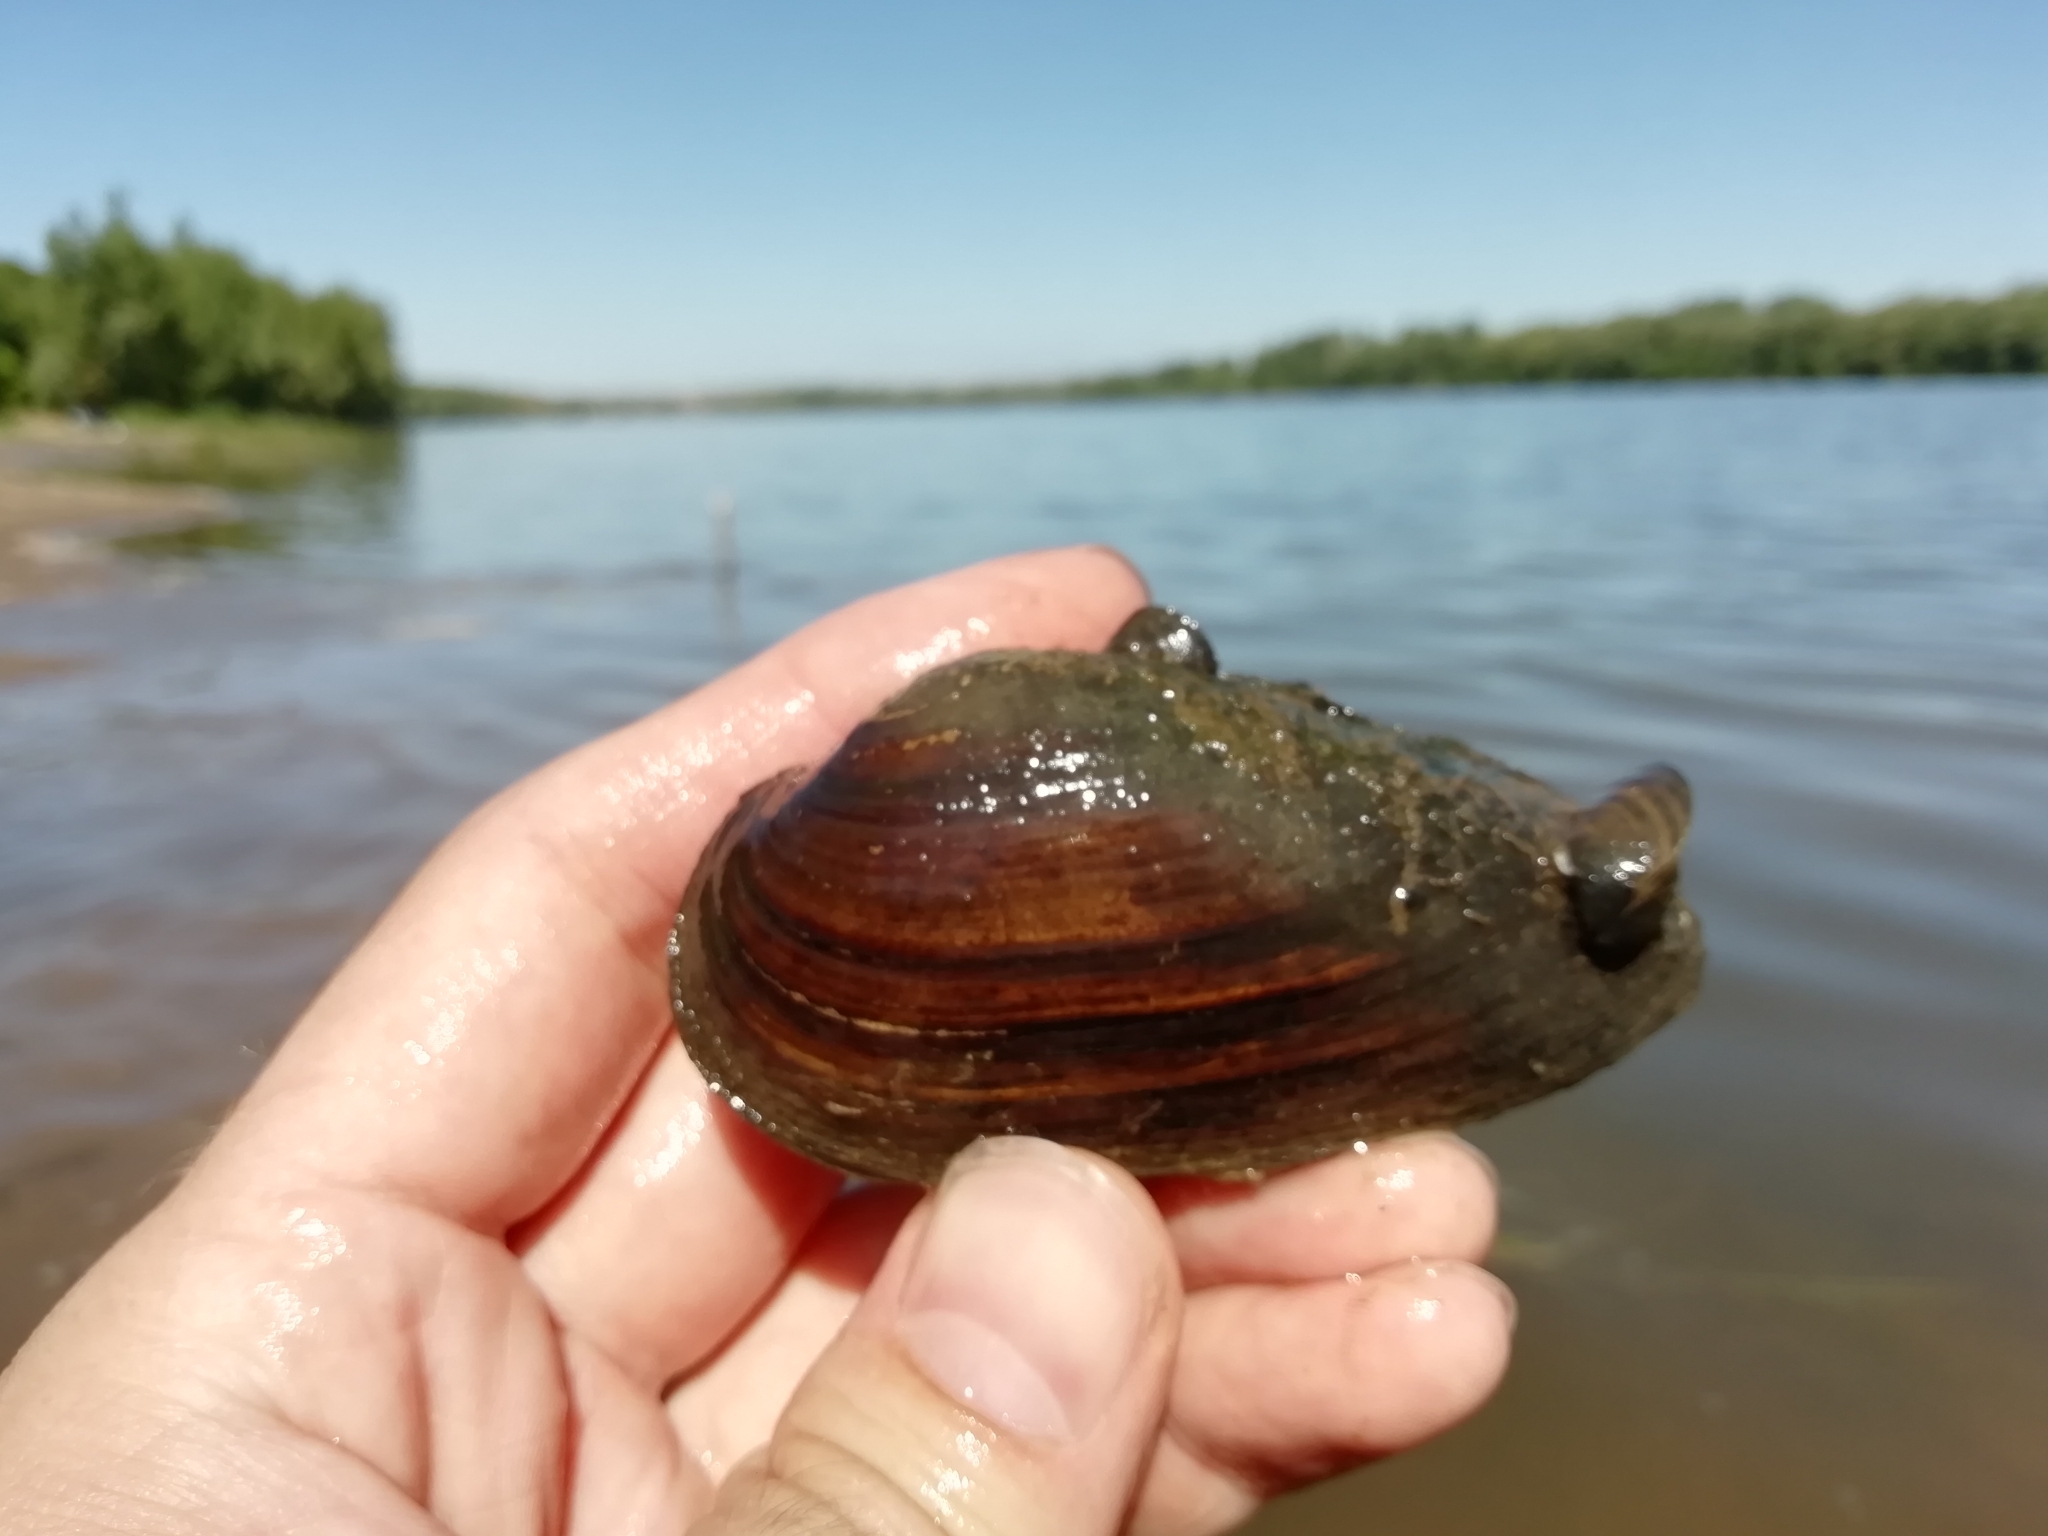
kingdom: Animalia
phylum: Mollusca
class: Bivalvia
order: Unionida
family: Unionidae
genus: Unio
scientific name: Unio tumidus
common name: Swollen river mussel
